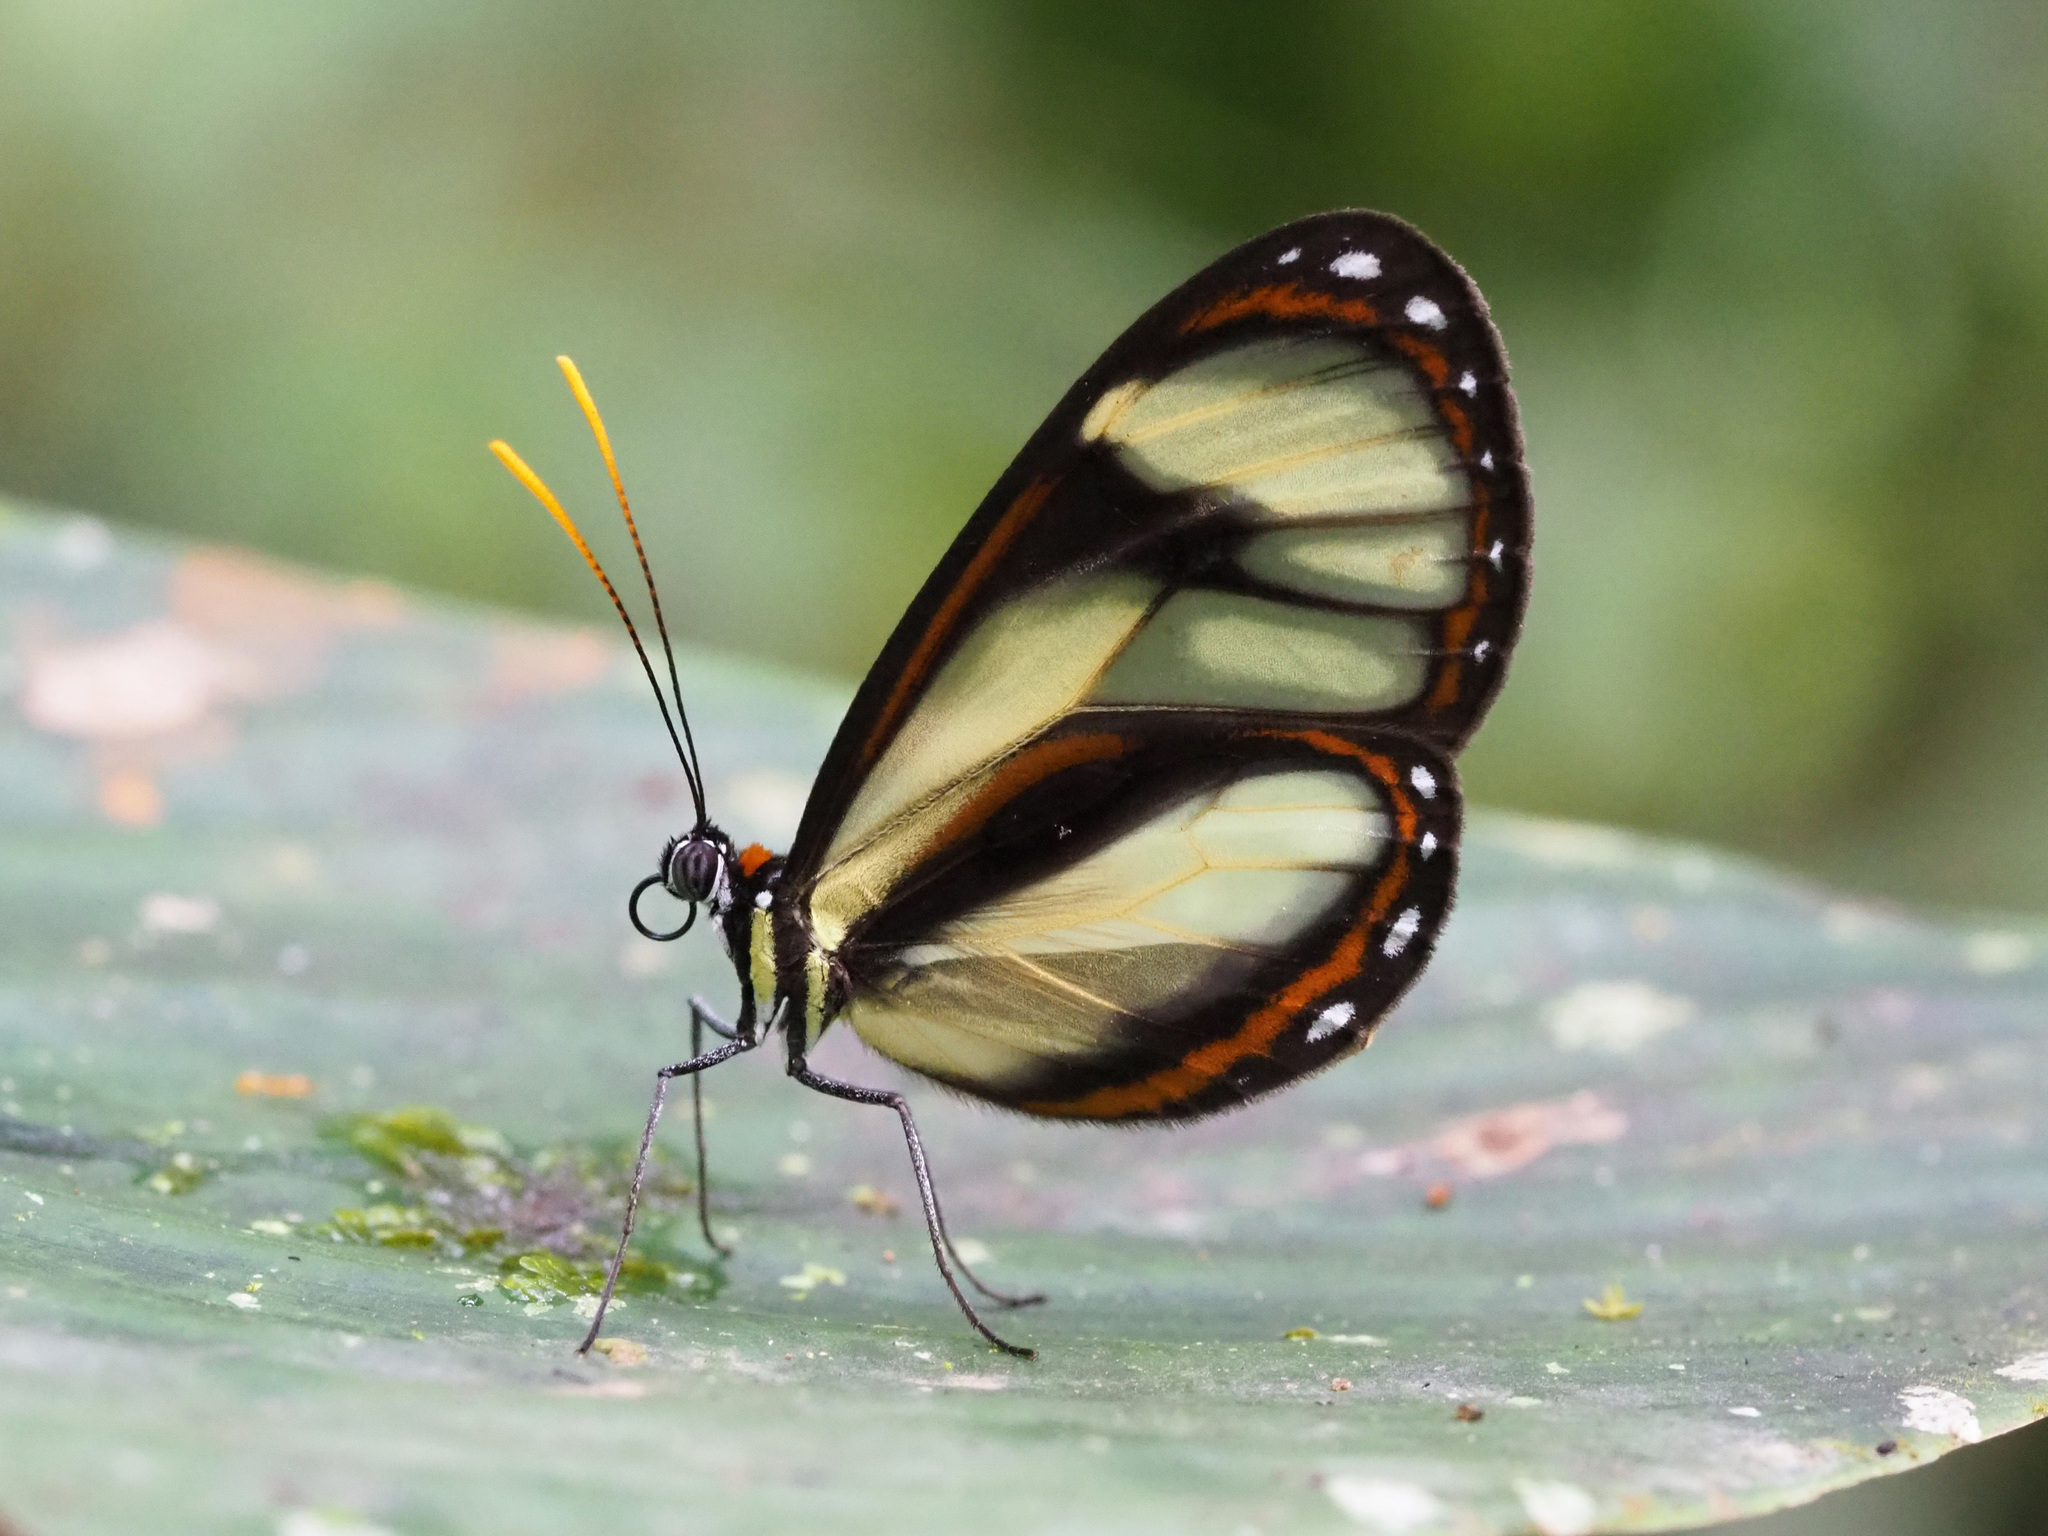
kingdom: Animalia
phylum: Arthropoda
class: Insecta
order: Lepidoptera
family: Nymphalidae
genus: Ithomia
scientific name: Ithomia salapia
